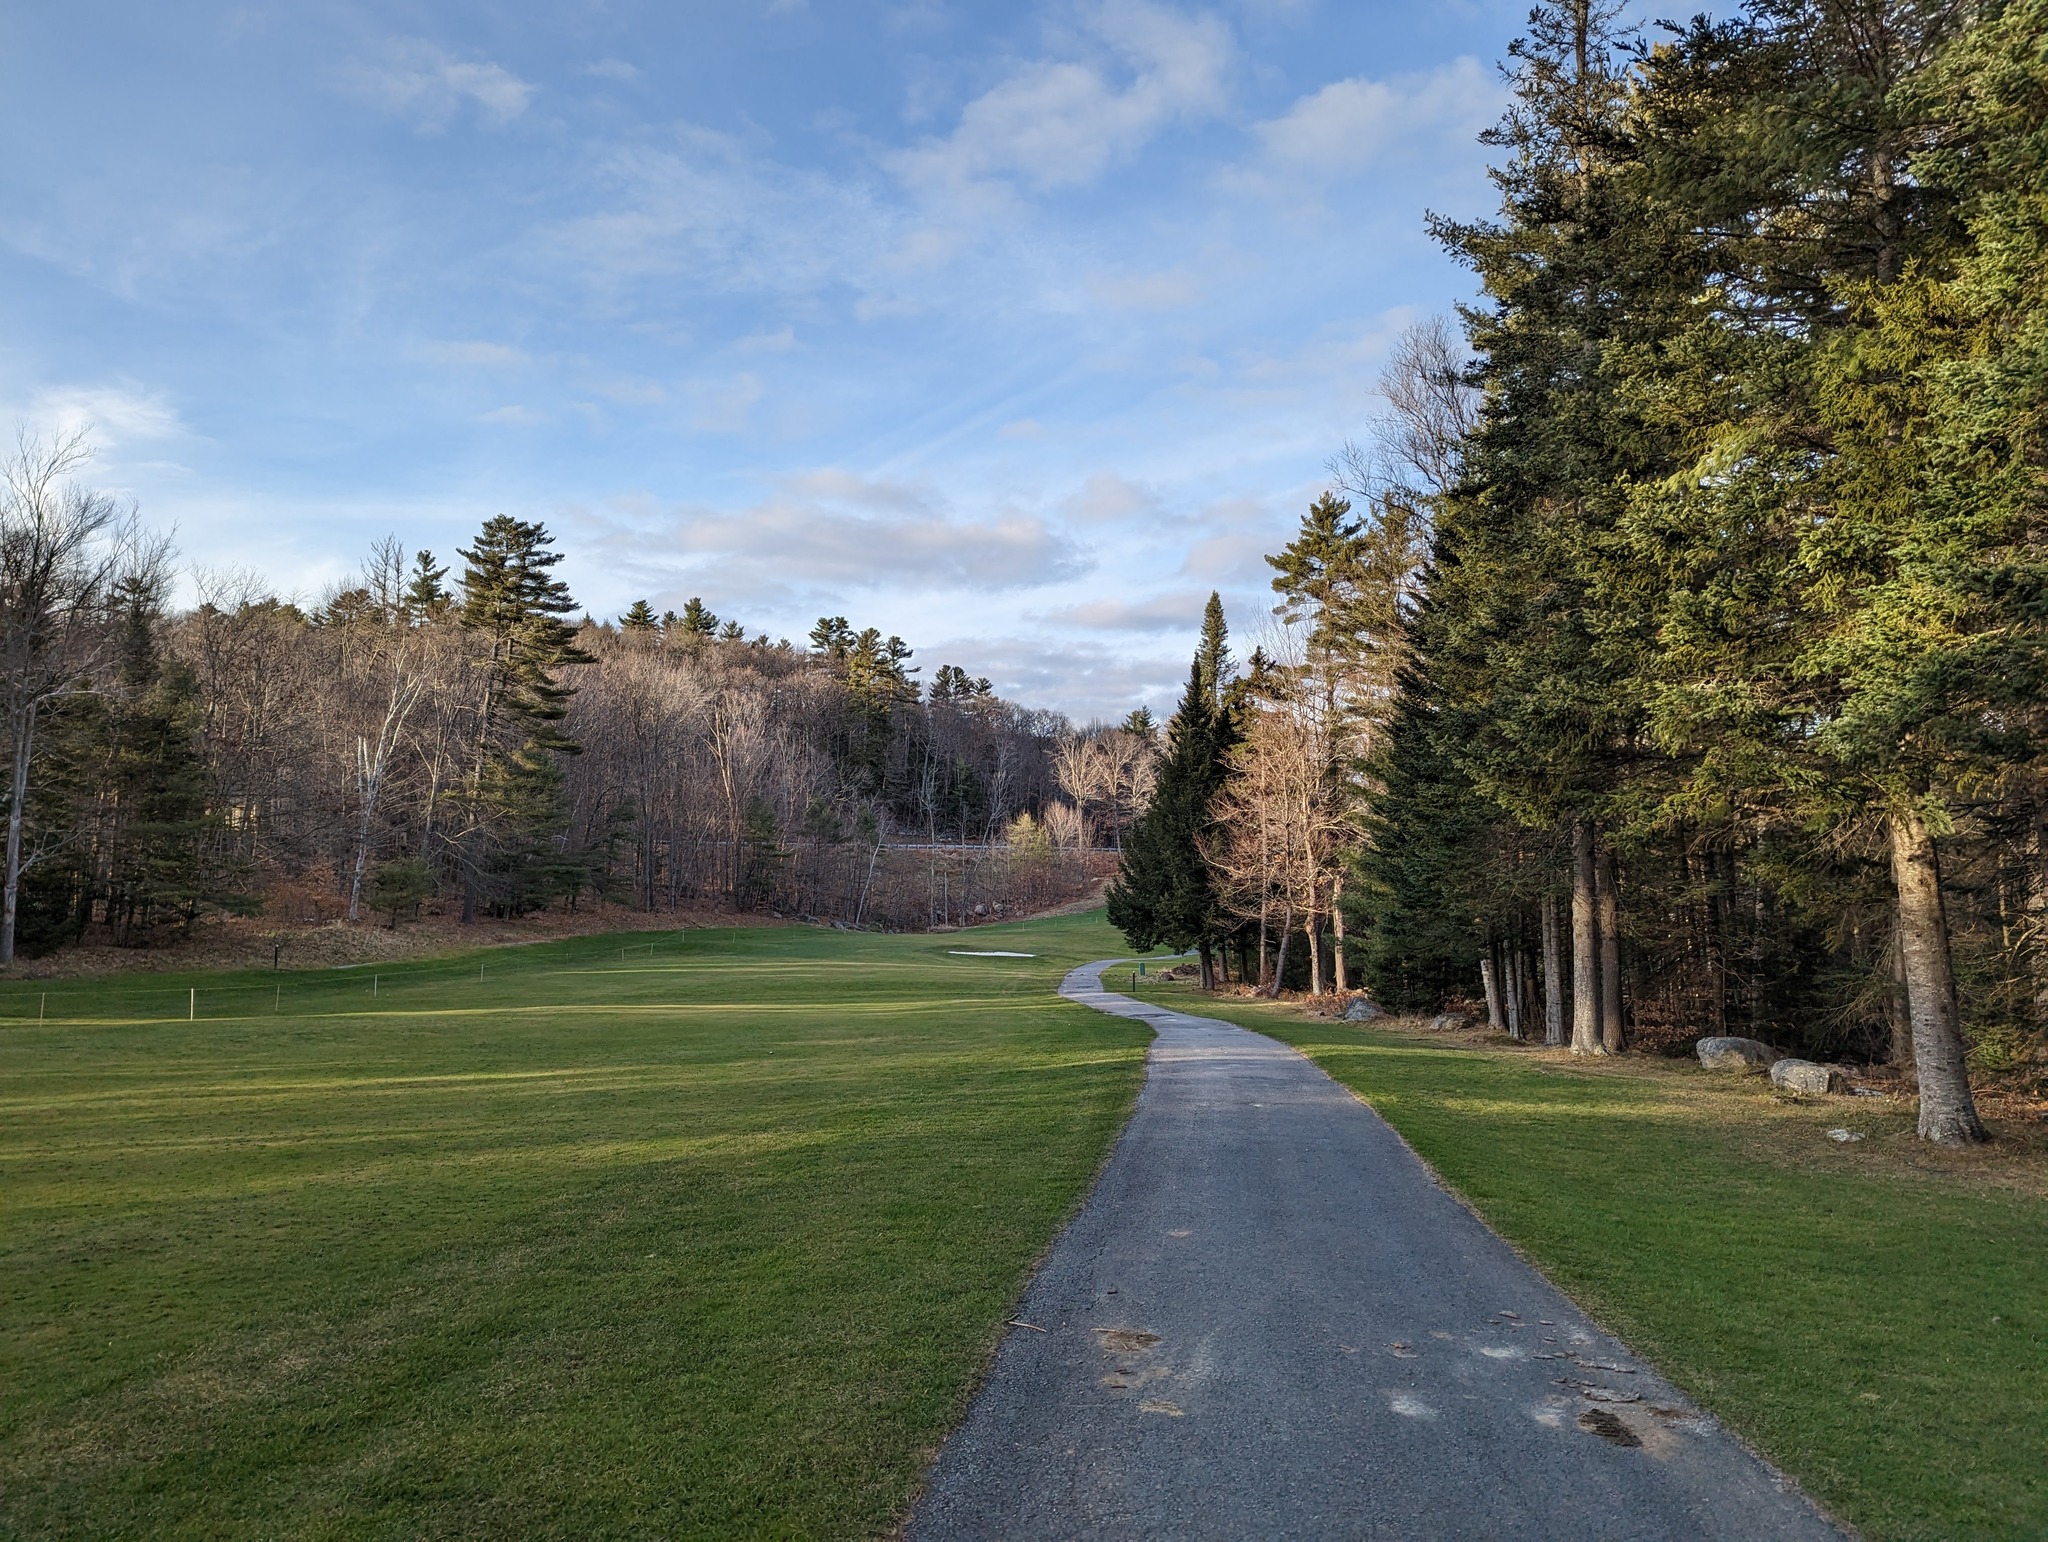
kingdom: Plantae
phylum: Tracheophyta
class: Pinopsida
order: Pinales
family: Pinaceae
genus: Pinus
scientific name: Pinus strobus
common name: Weymouth pine
